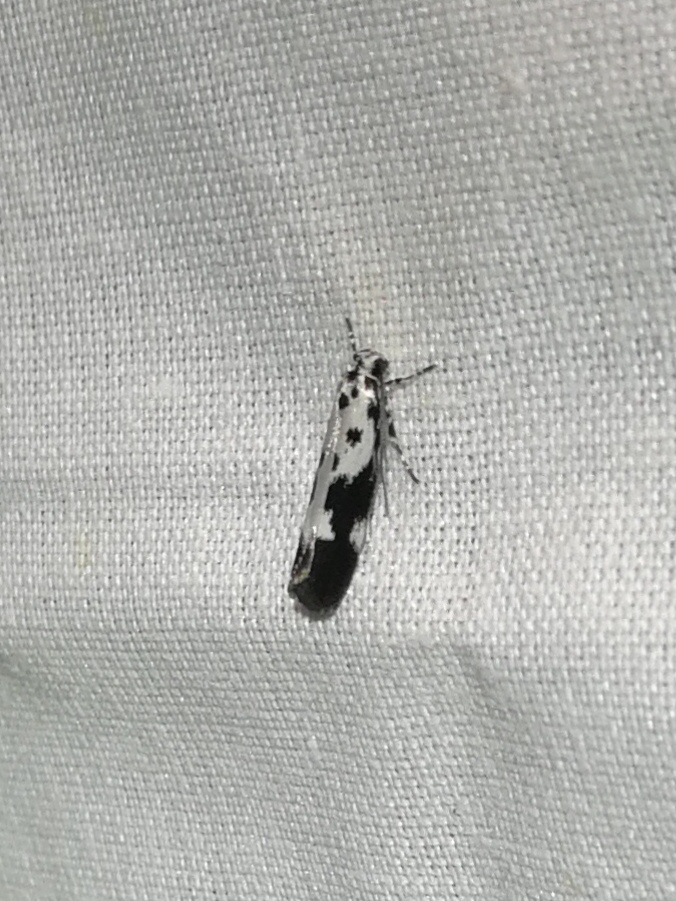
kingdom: Animalia
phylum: Arthropoda
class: Insecta
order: Lepidoptera
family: Ethmiidae
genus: Ethmia
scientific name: Ethmia quadrillella
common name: Comfrey ermel
